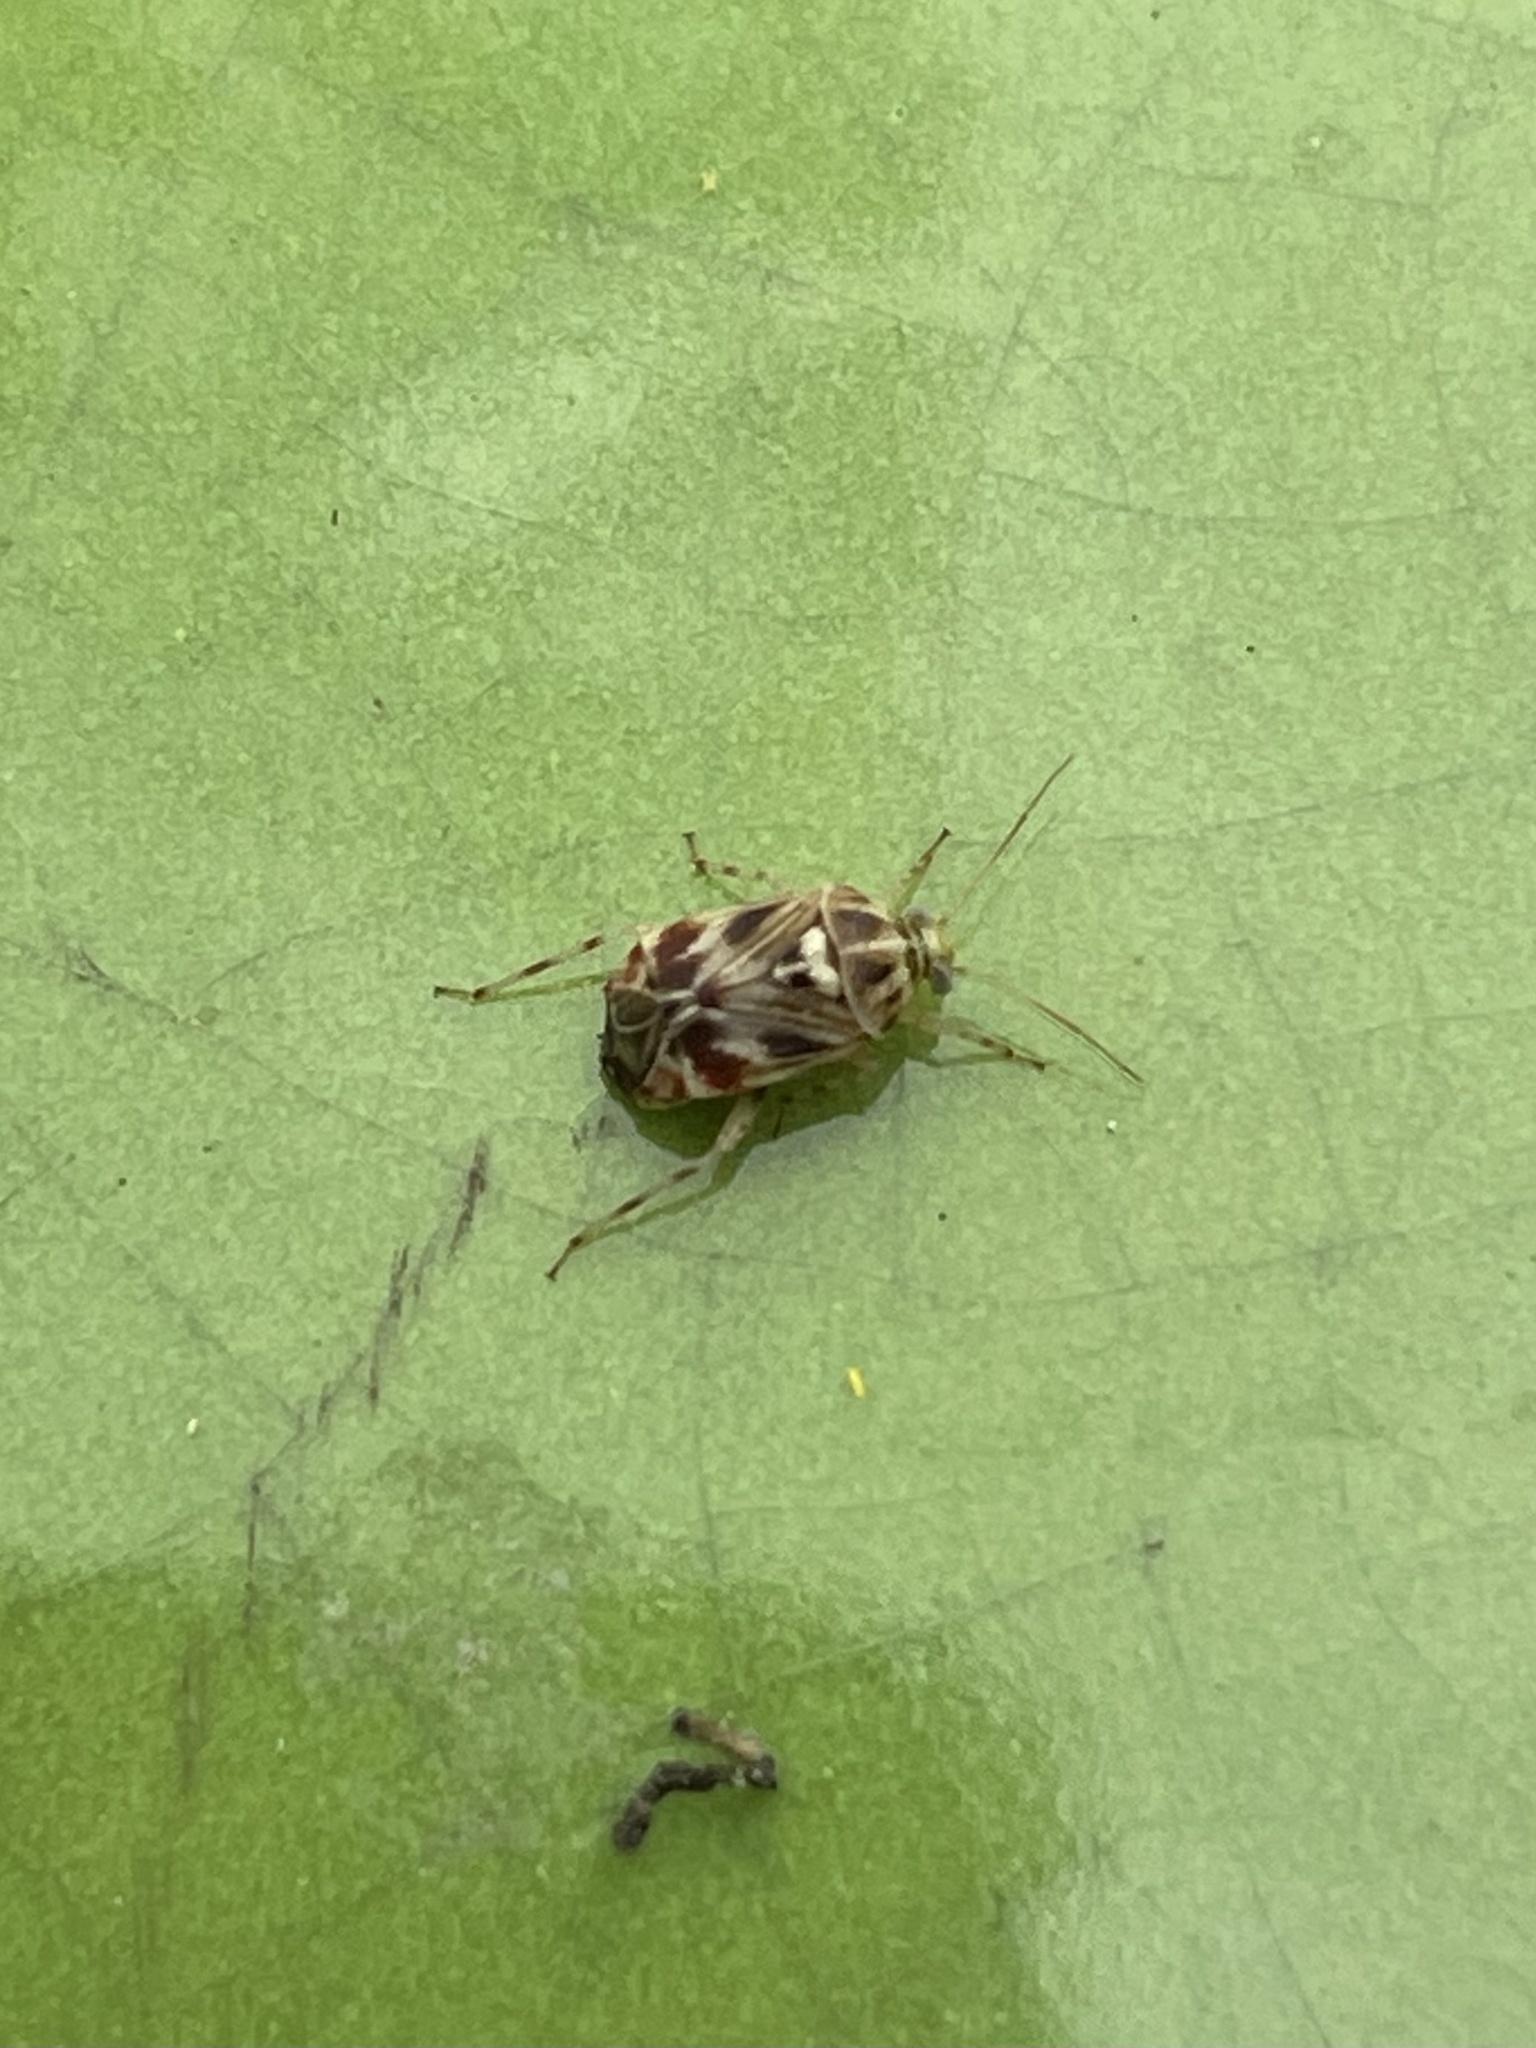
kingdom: Animalia
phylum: Arthropoda
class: Insecta
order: Hemiptera
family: Miridae
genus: Tropidosteptes
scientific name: Tropidosteptes quercicola
